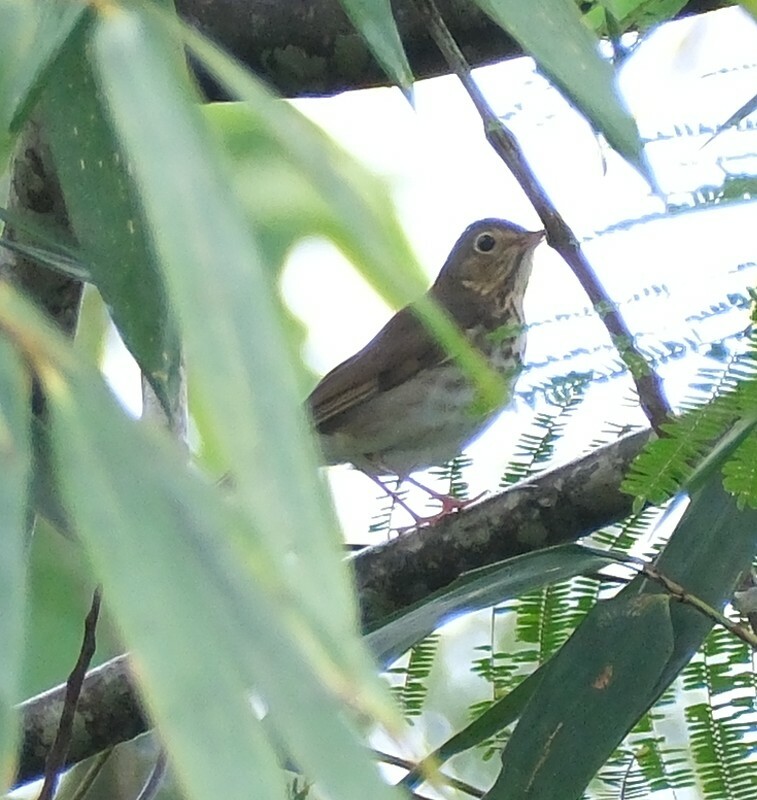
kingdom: Animalia
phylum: Chordata
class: Aves
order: Passeriformes
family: Turdidae
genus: Catharus
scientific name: Catharus ustulatus
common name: Swainson's thrush
